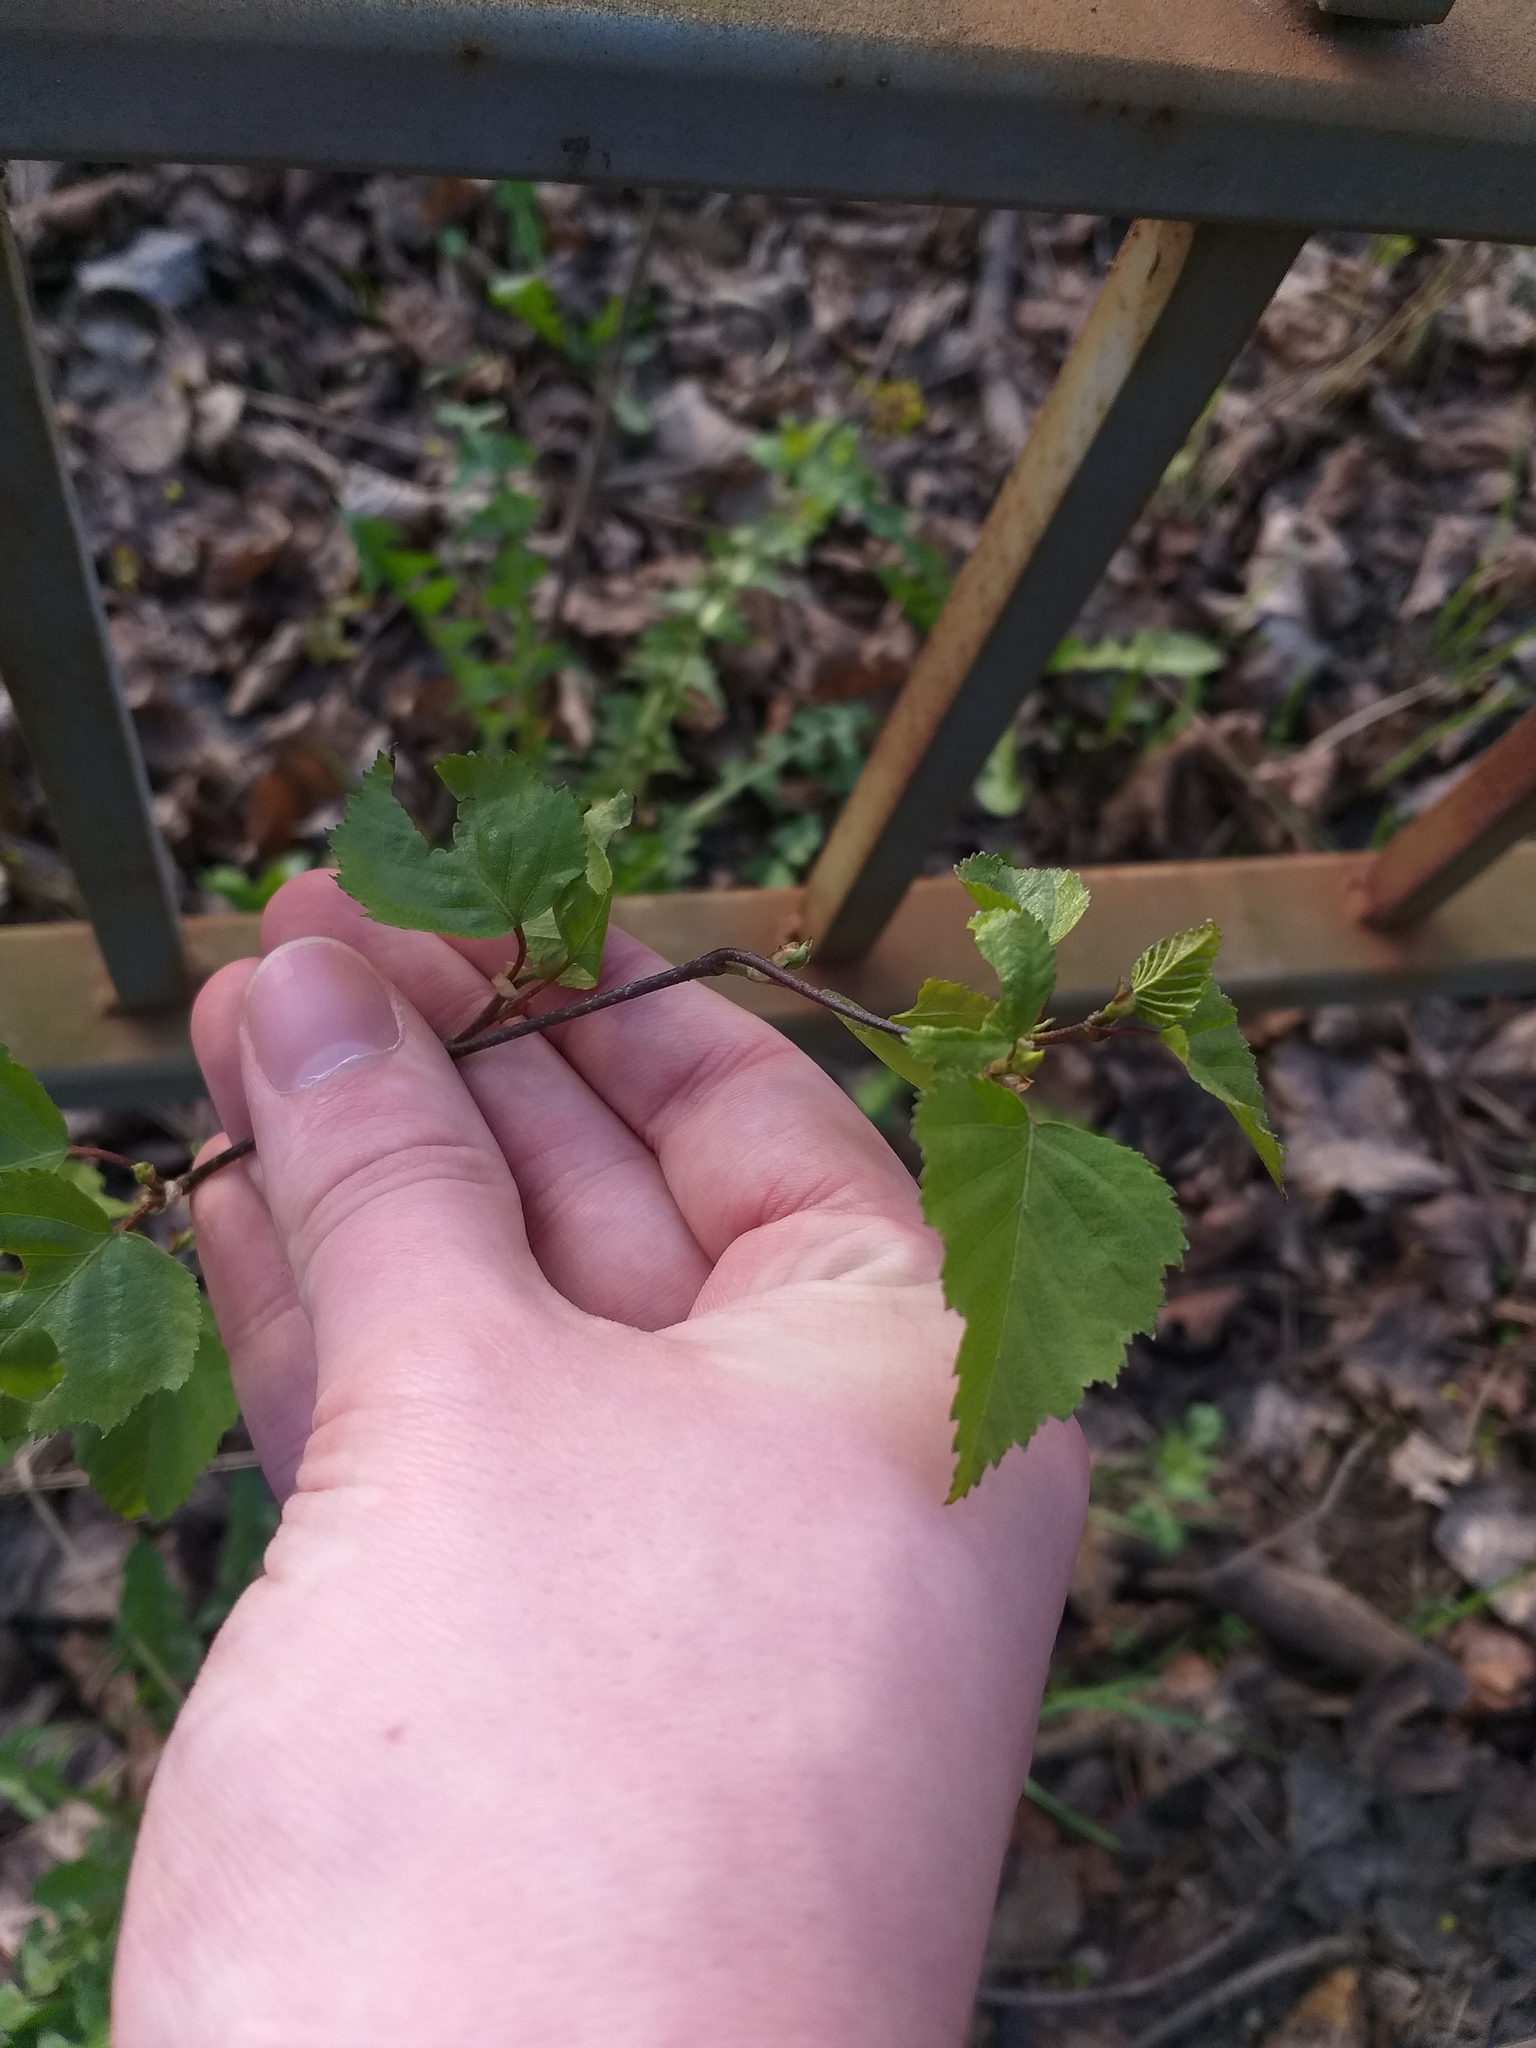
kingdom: Plantae
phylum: Tracheophyta
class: Magnoliopsida
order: Fagales
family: Betulaceae
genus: Betula
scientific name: Betula pendula
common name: Silver birch
